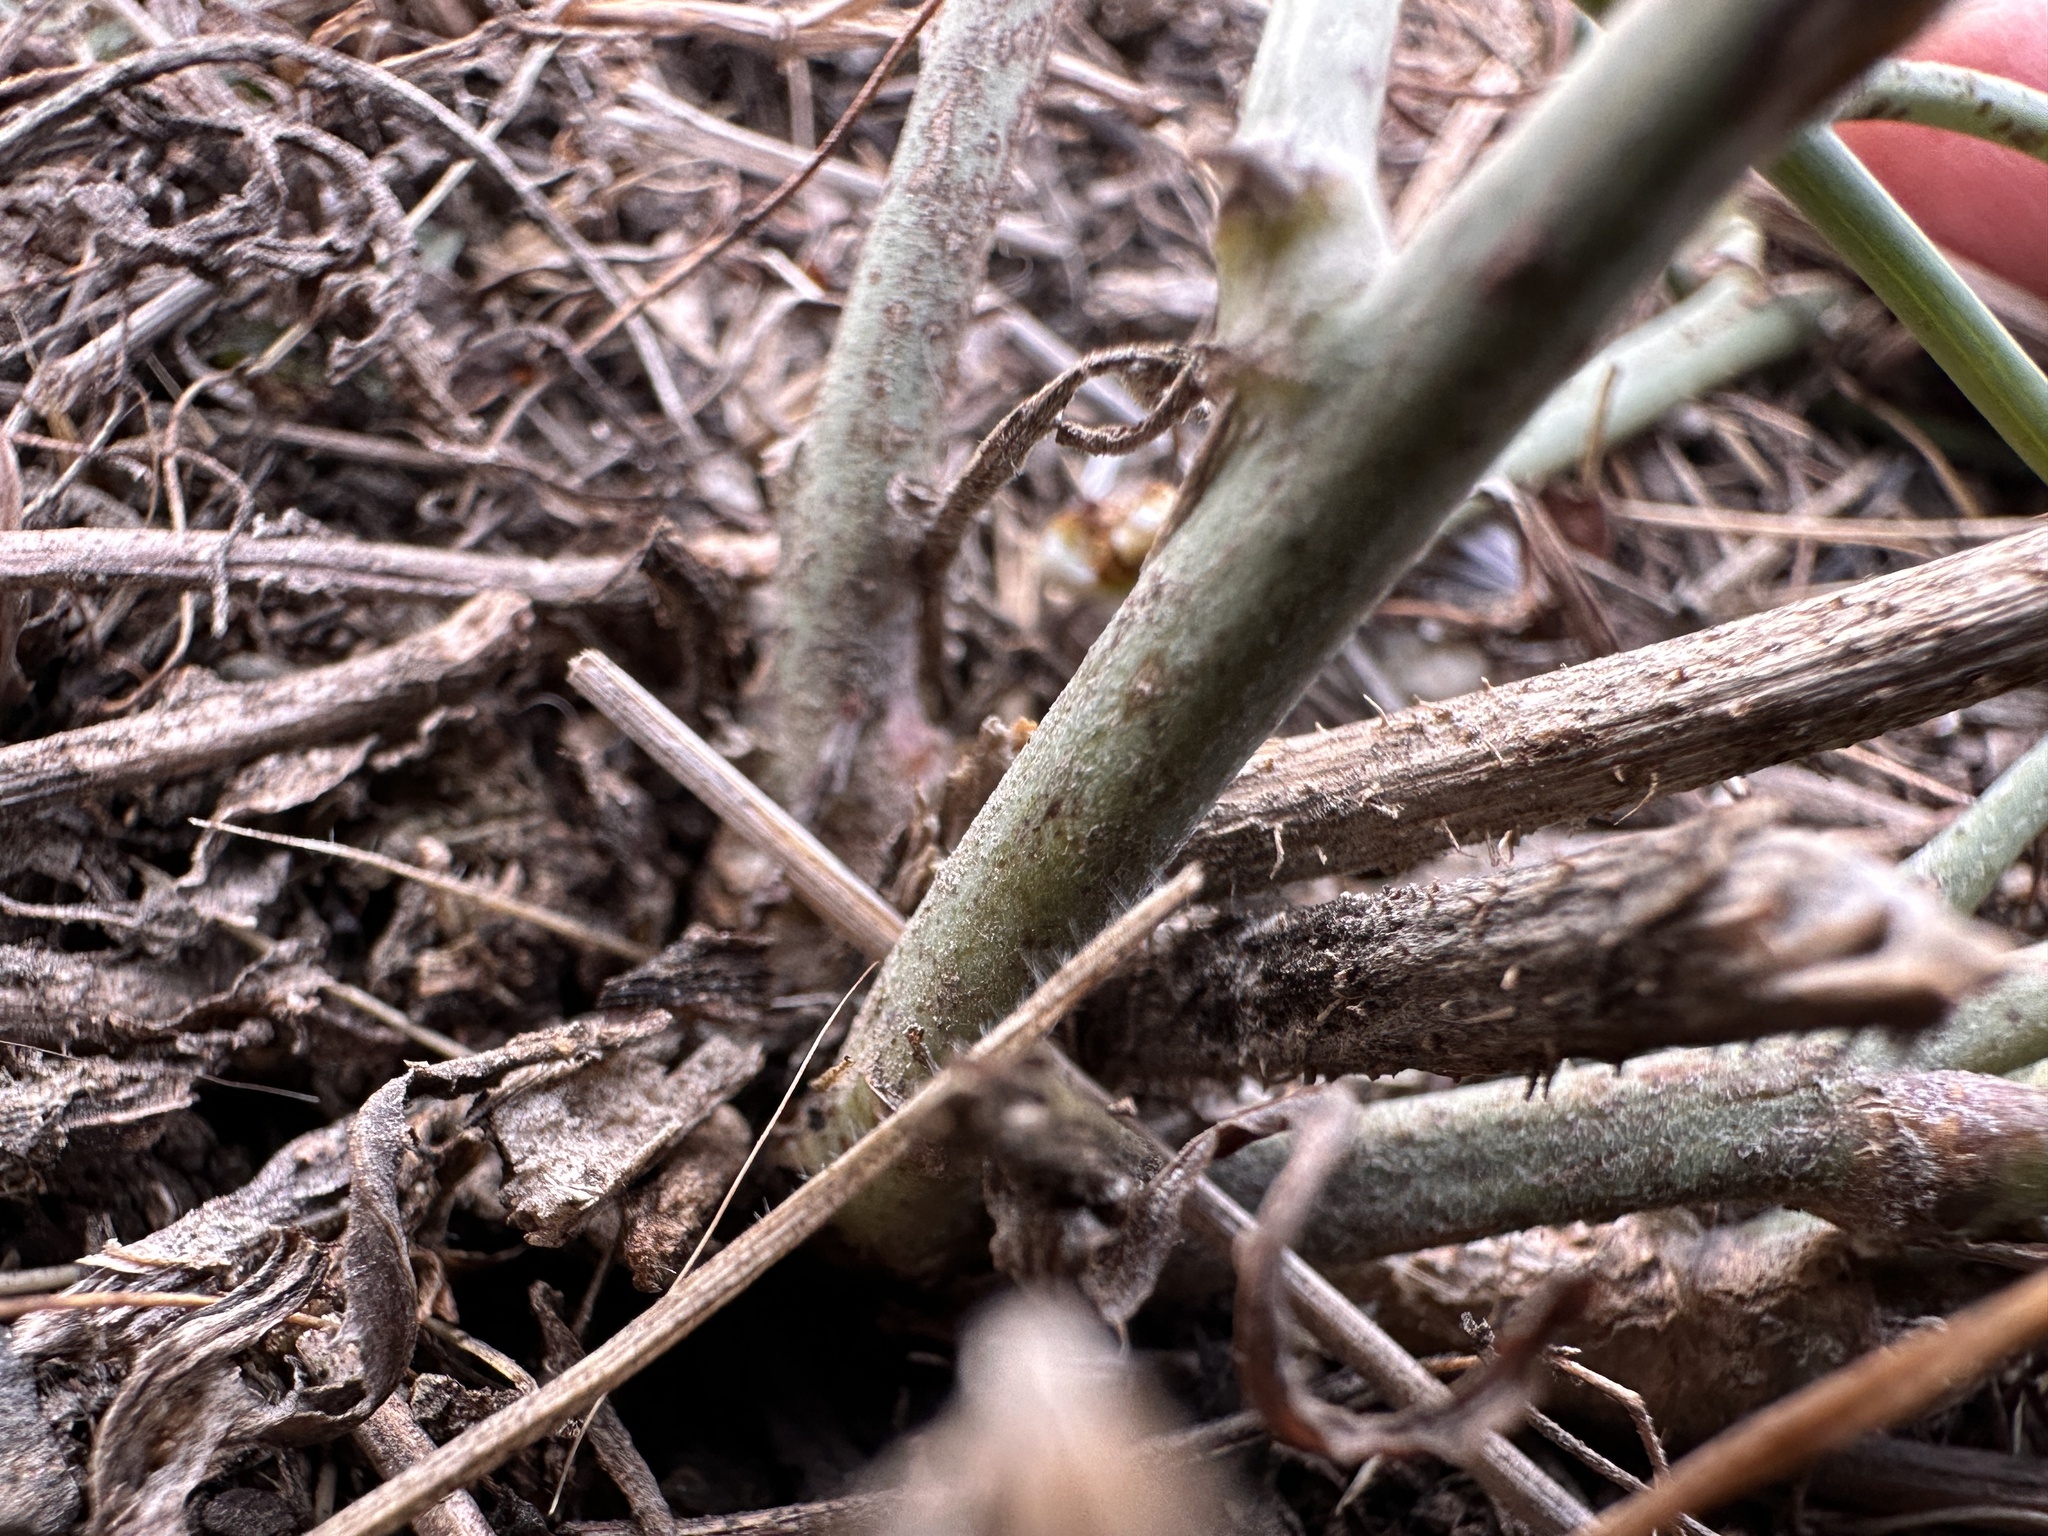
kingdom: Plantae
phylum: Tracheophyta
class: Magnoliopsida
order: Asterales
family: Asteraceae
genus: Chondrilla
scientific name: Chondrilla juncea
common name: Skeleton weed
